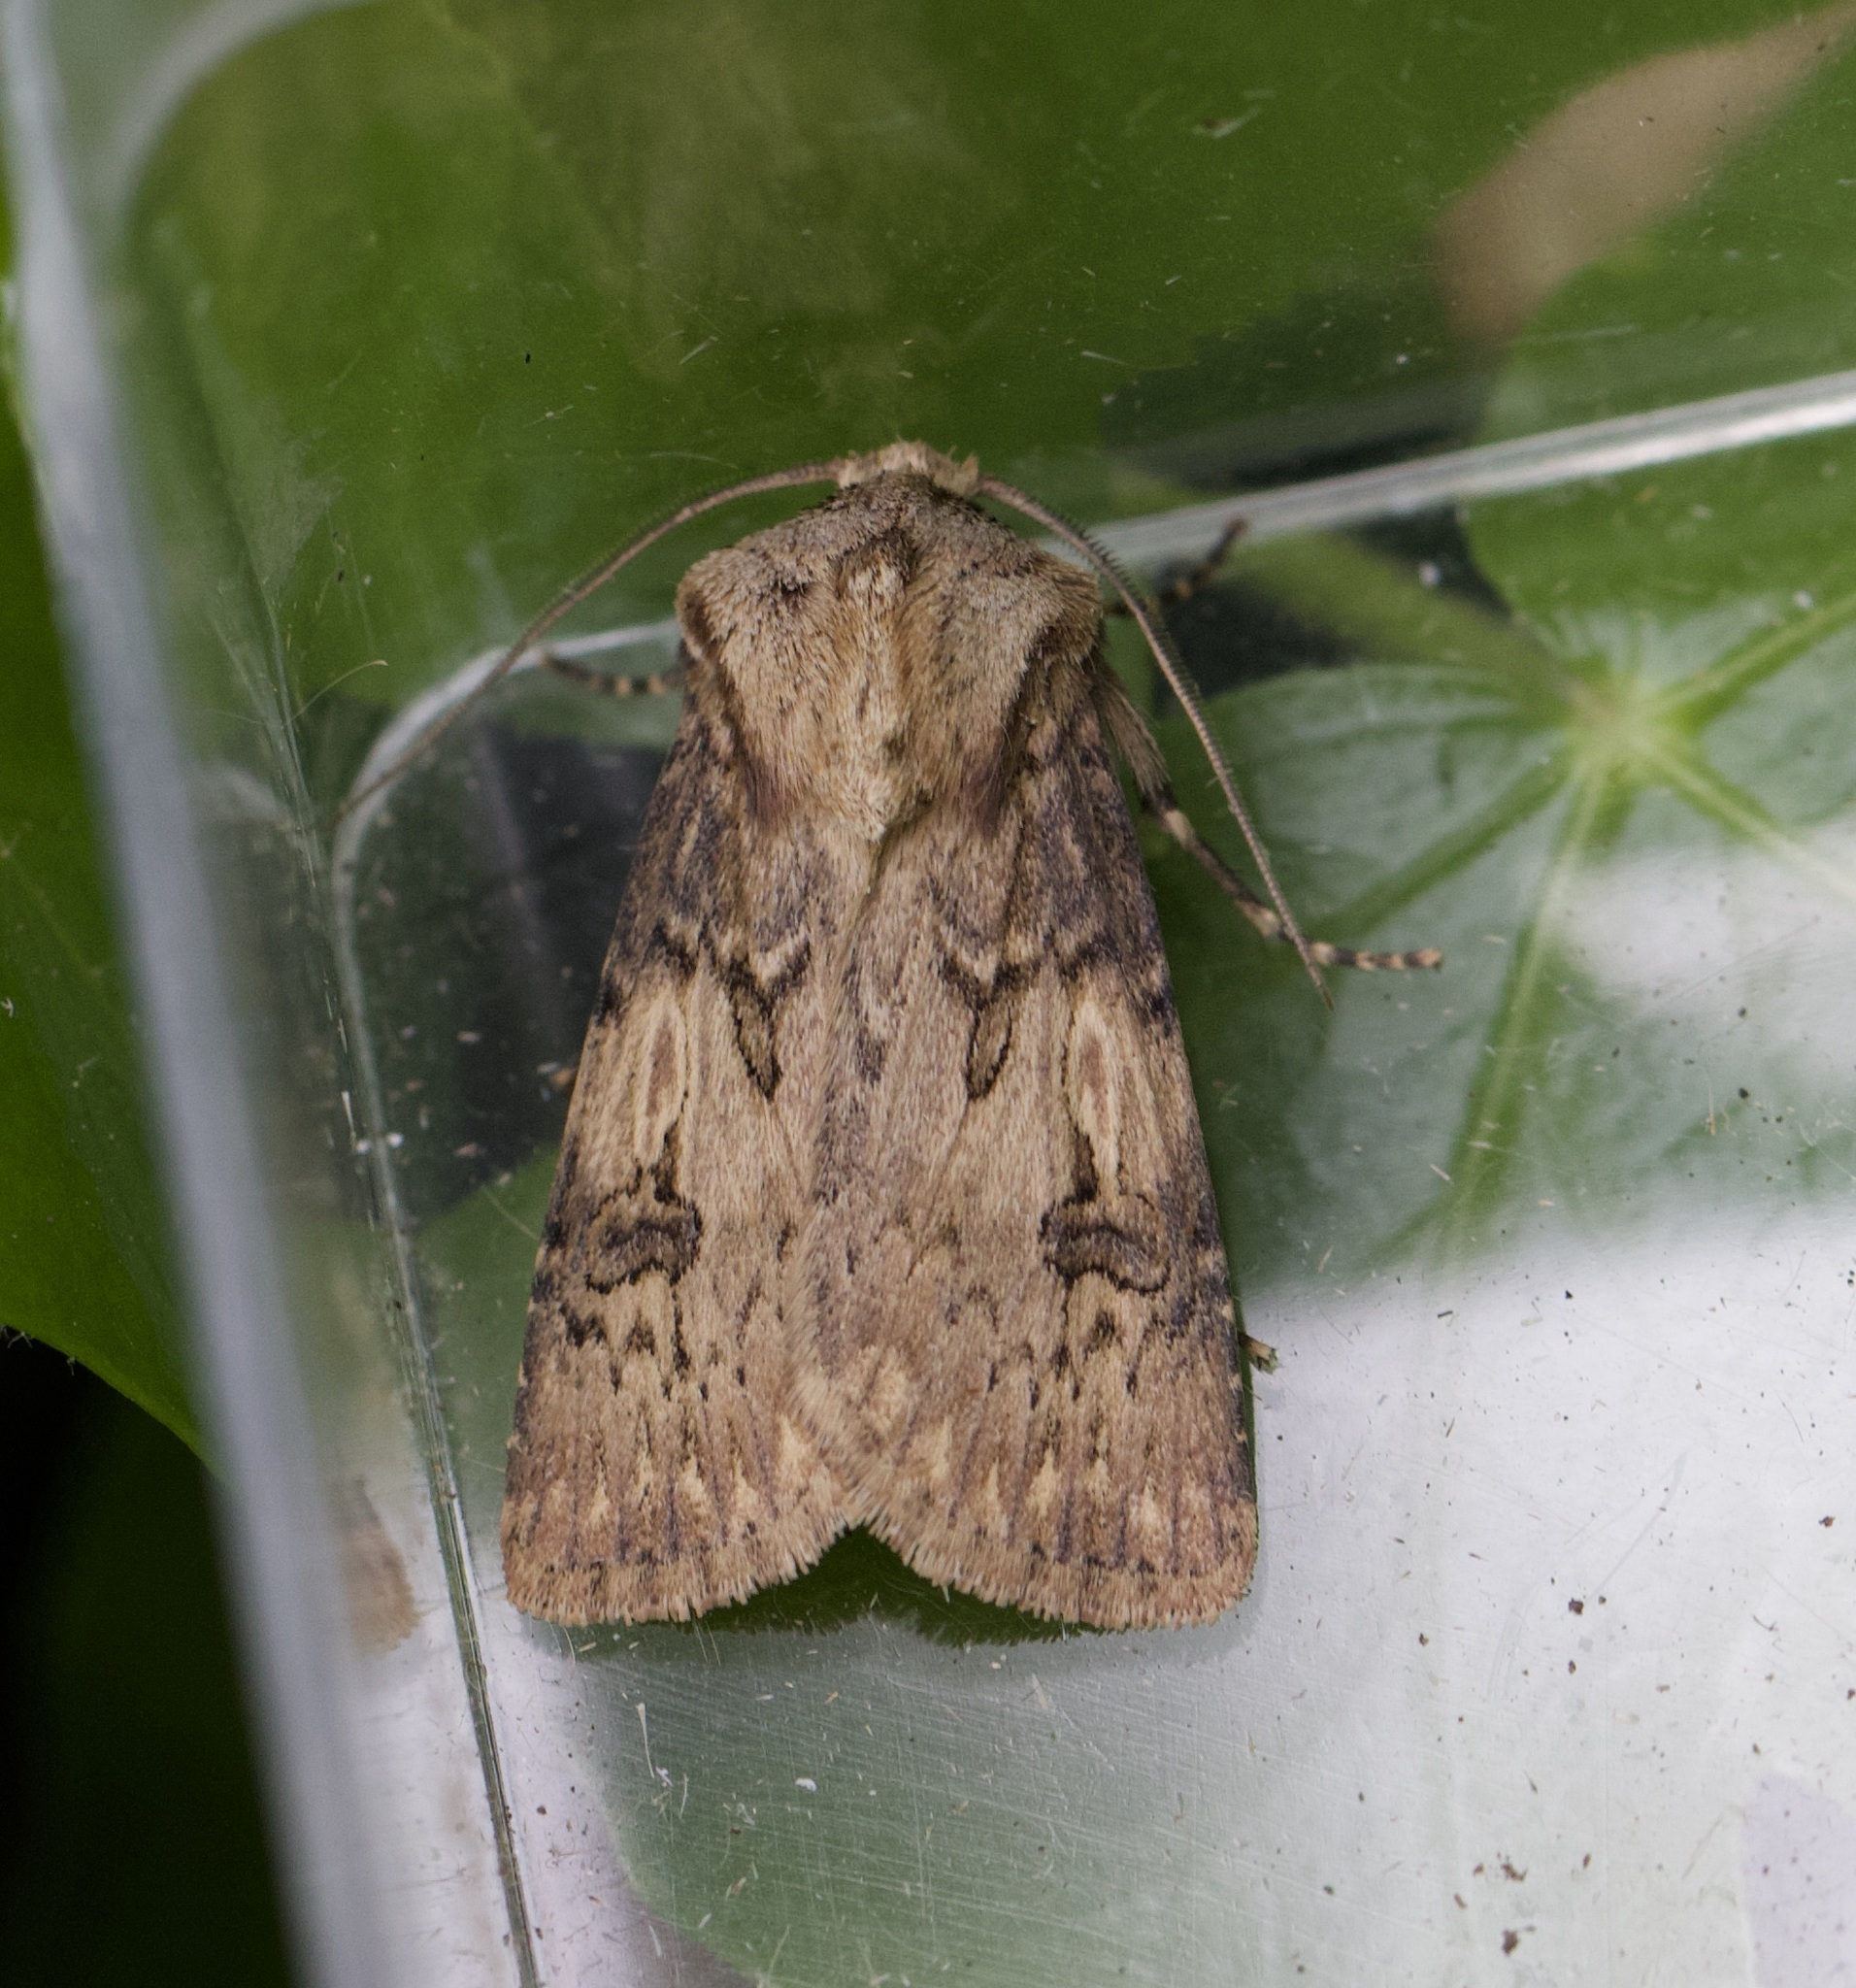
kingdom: Animalia
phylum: Arthropoda
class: Insecta
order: Lepidoptera
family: Noctuidae
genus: Agrotis
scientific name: Agrotis puta
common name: Shuttle-shaped dart
